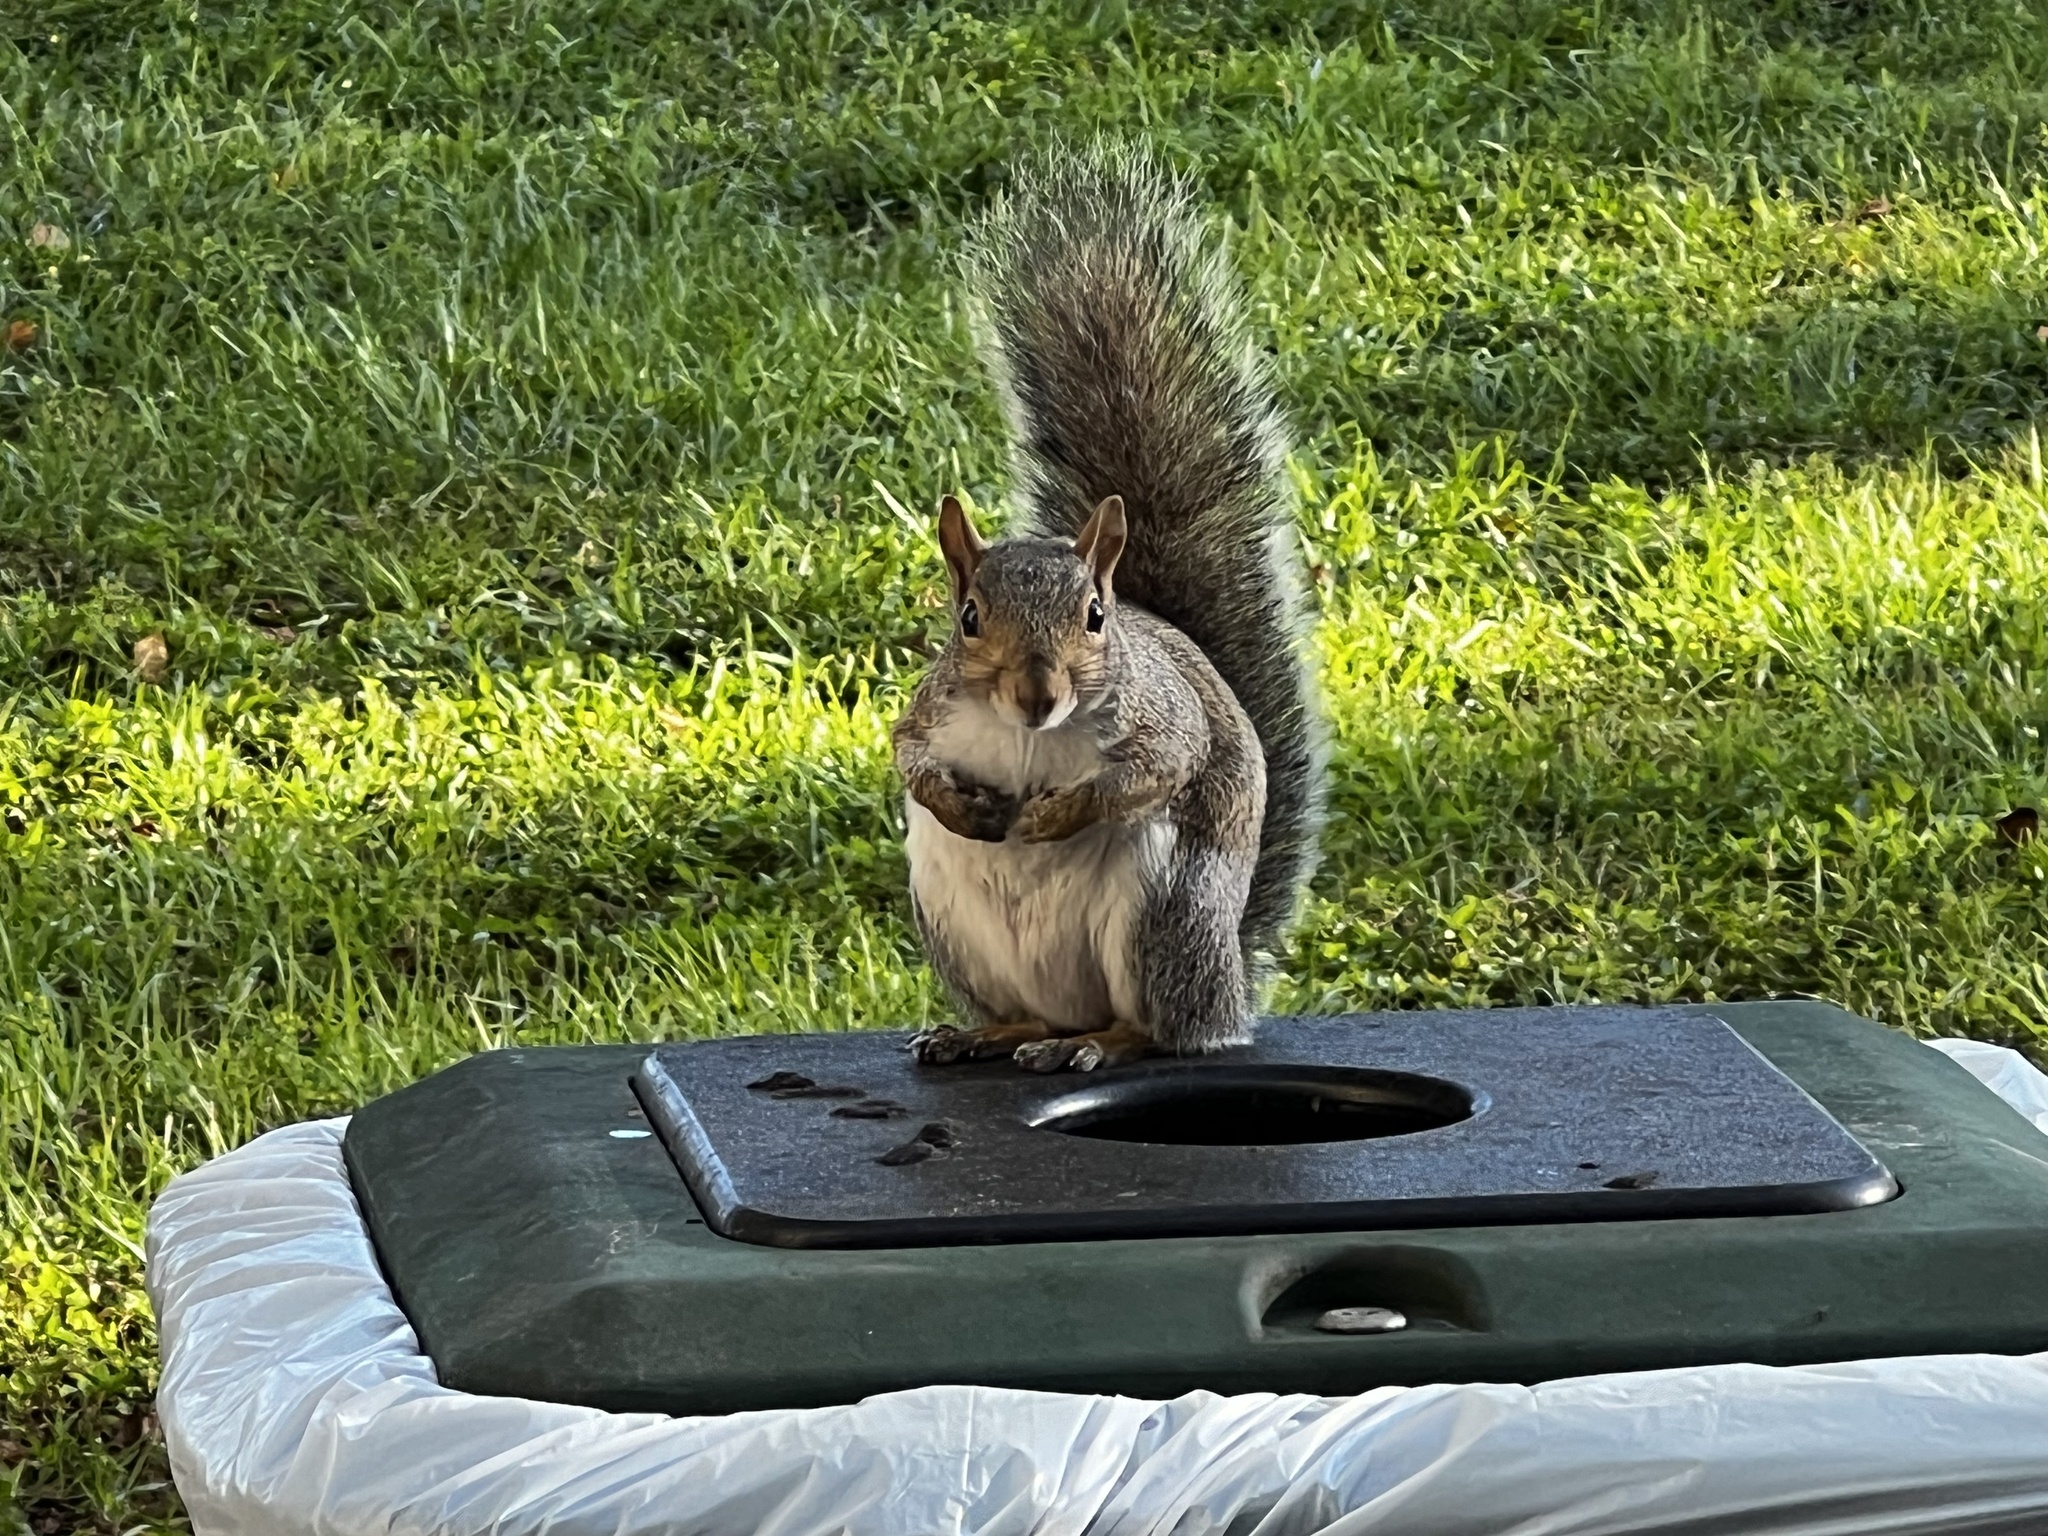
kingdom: Animalia
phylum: Chordata
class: Mammalia
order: Rodentia
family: Sciuridae
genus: Sciurus
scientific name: Sciurus carolinensis
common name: Eastern gray squirrel
